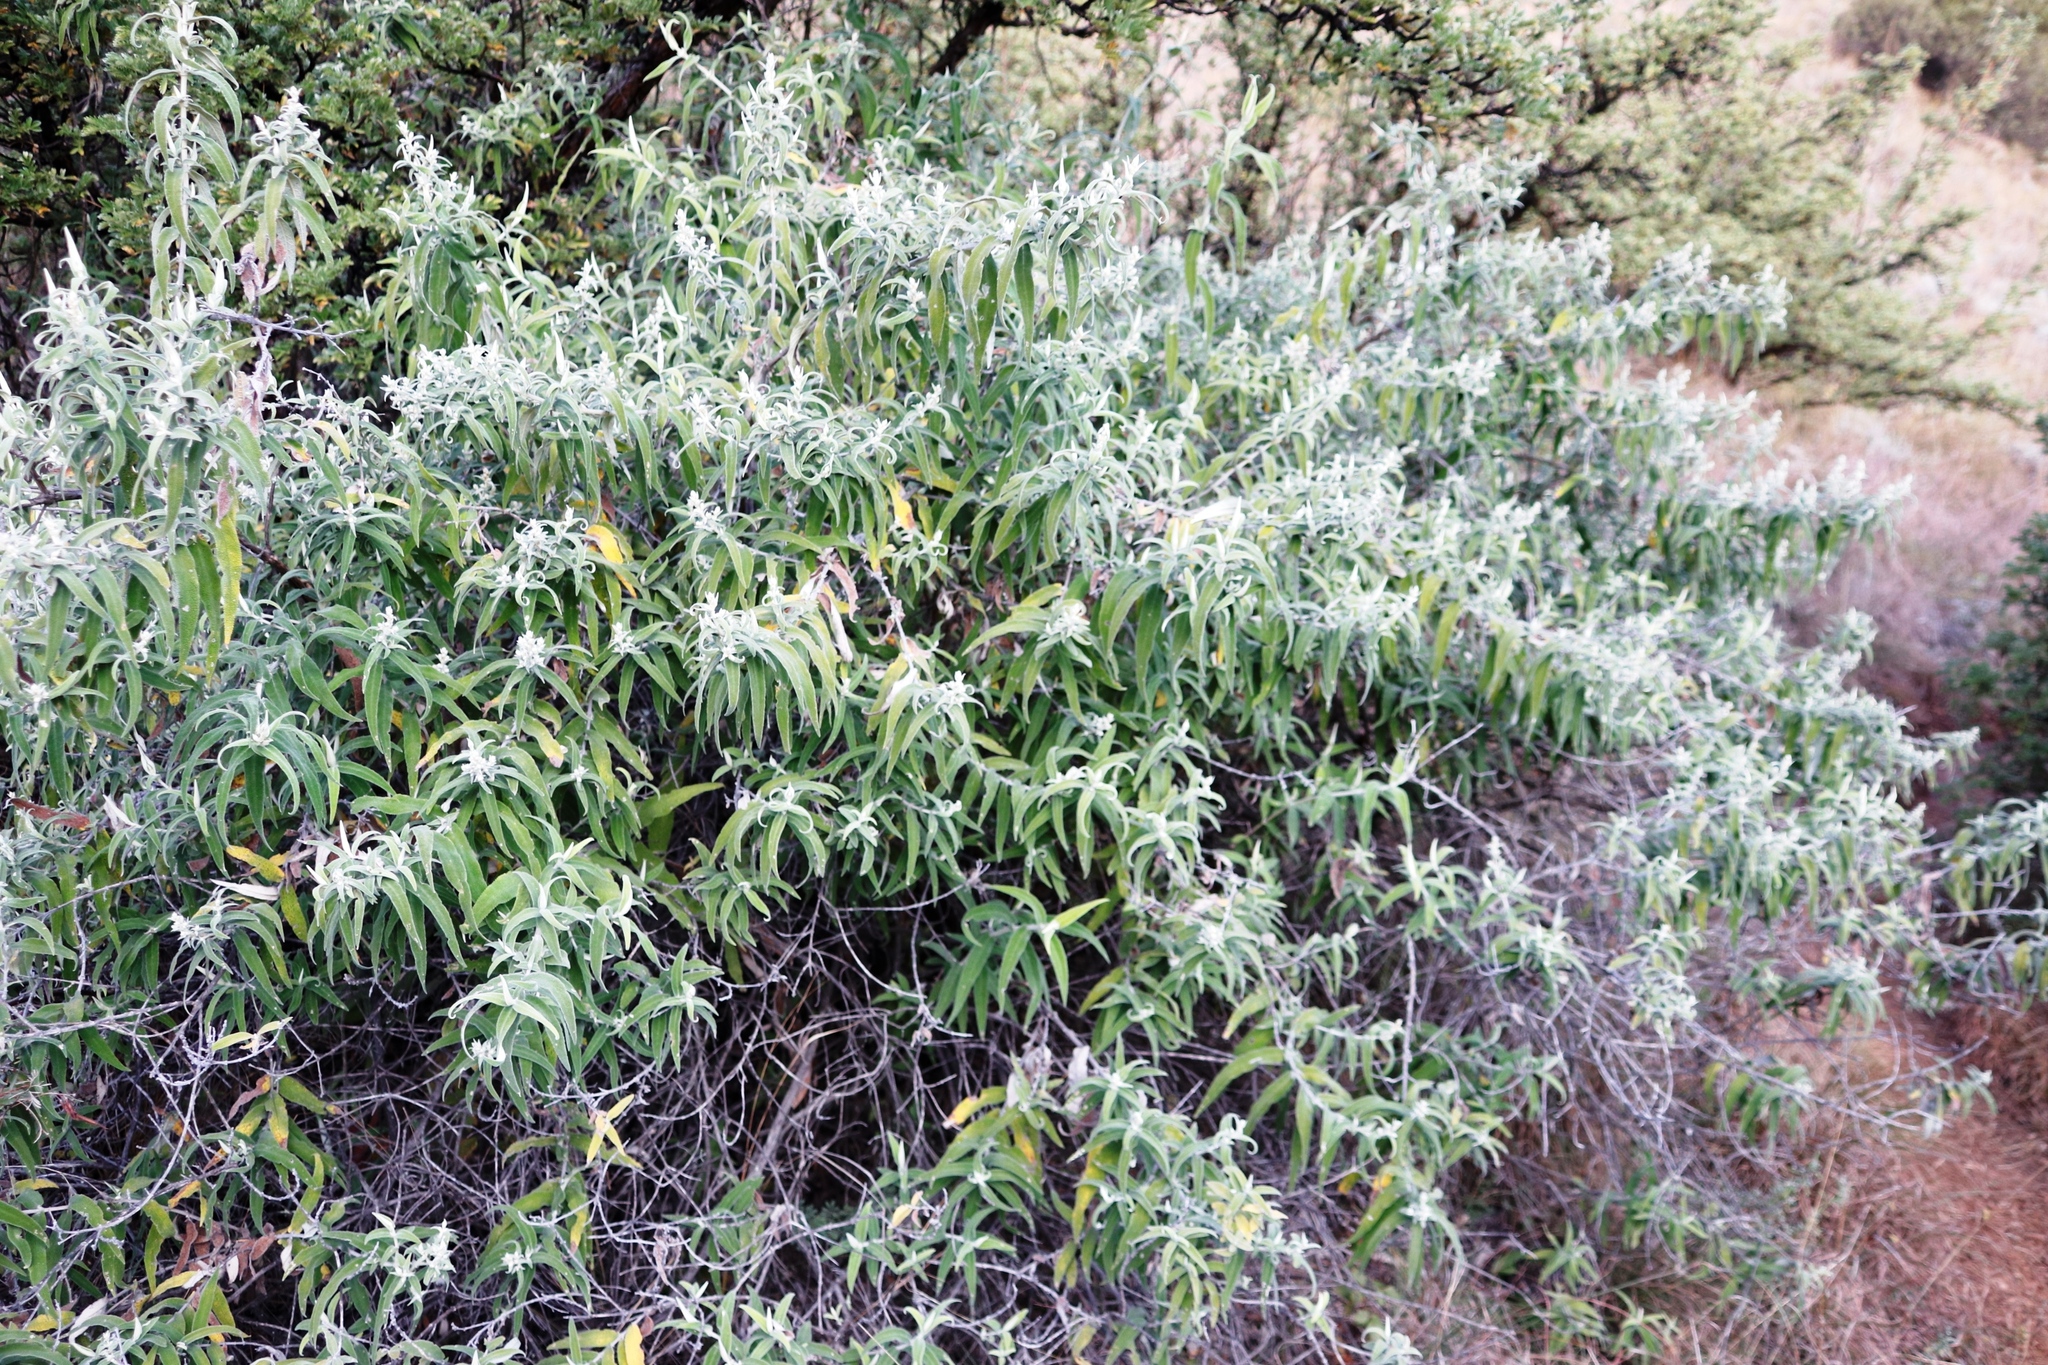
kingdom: Plantae
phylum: Tracheophyta
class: Magnoliopsida
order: Lamiales
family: Scrophulariaceae
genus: Buddleja
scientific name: Buddleja salviifolia
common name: Sagewood
